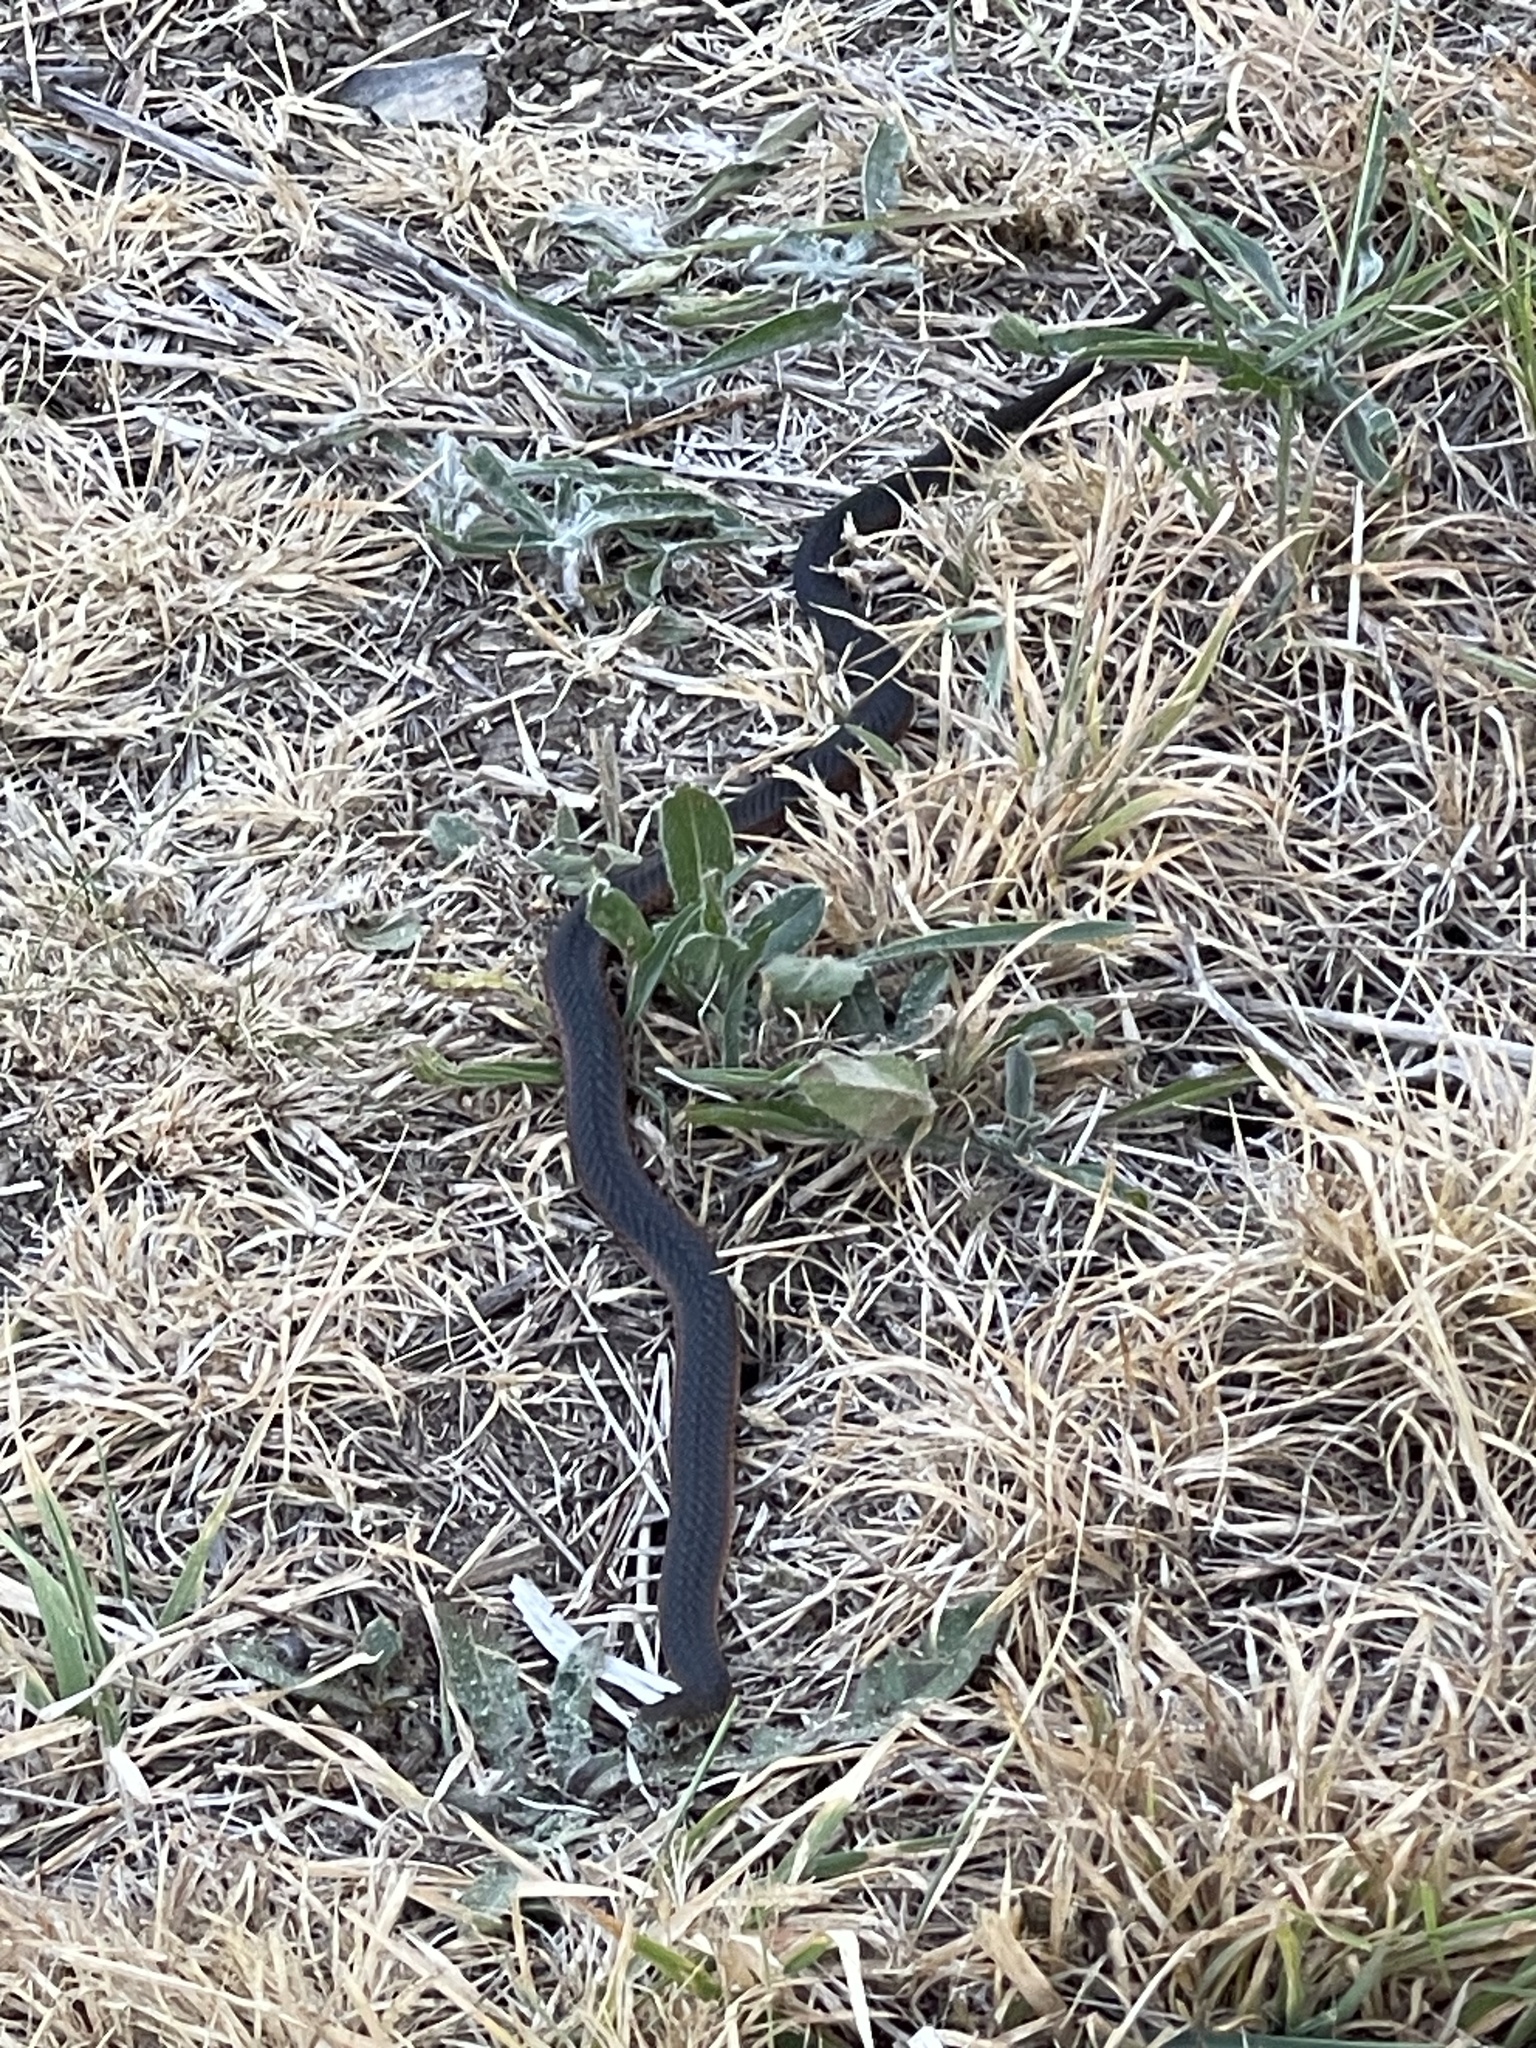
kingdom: Animalia
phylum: Chordata
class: Squamata
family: Elapidae
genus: Austrelaps
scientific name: Austrelaps superbus
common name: Copperhead snake
